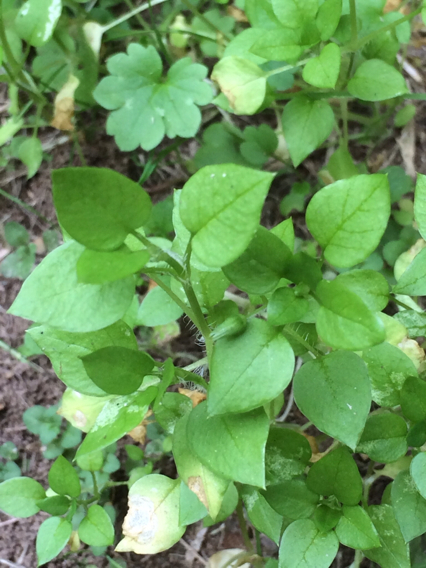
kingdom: Plantae
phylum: Tracheophyta
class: Magnoliopsida
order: Caryophyllales
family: Caryophyllaceae
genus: Stellaria
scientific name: Stellaria media
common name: Common chickweed
